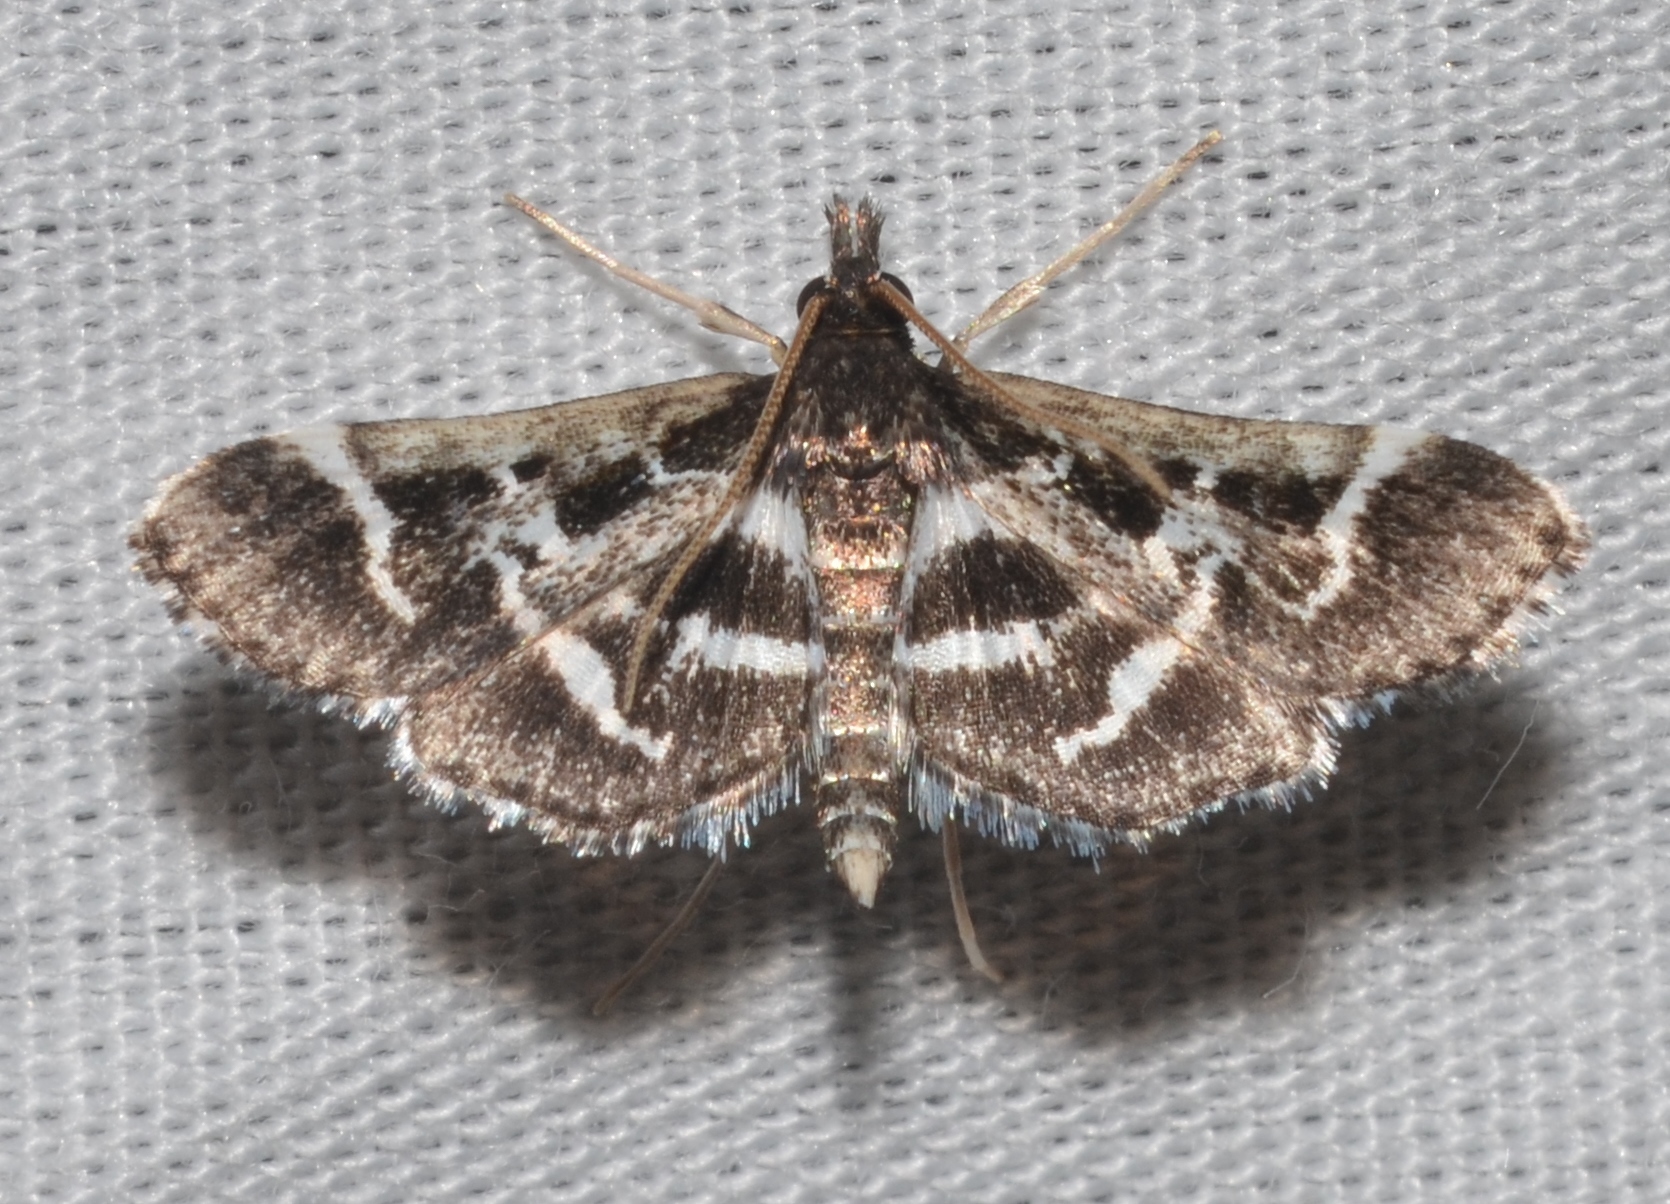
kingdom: Animalia
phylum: Arthropoda
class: Insecta
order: Lepidoptera
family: Crambidae
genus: Diasemiodes
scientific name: Diasemiodes janassialis
